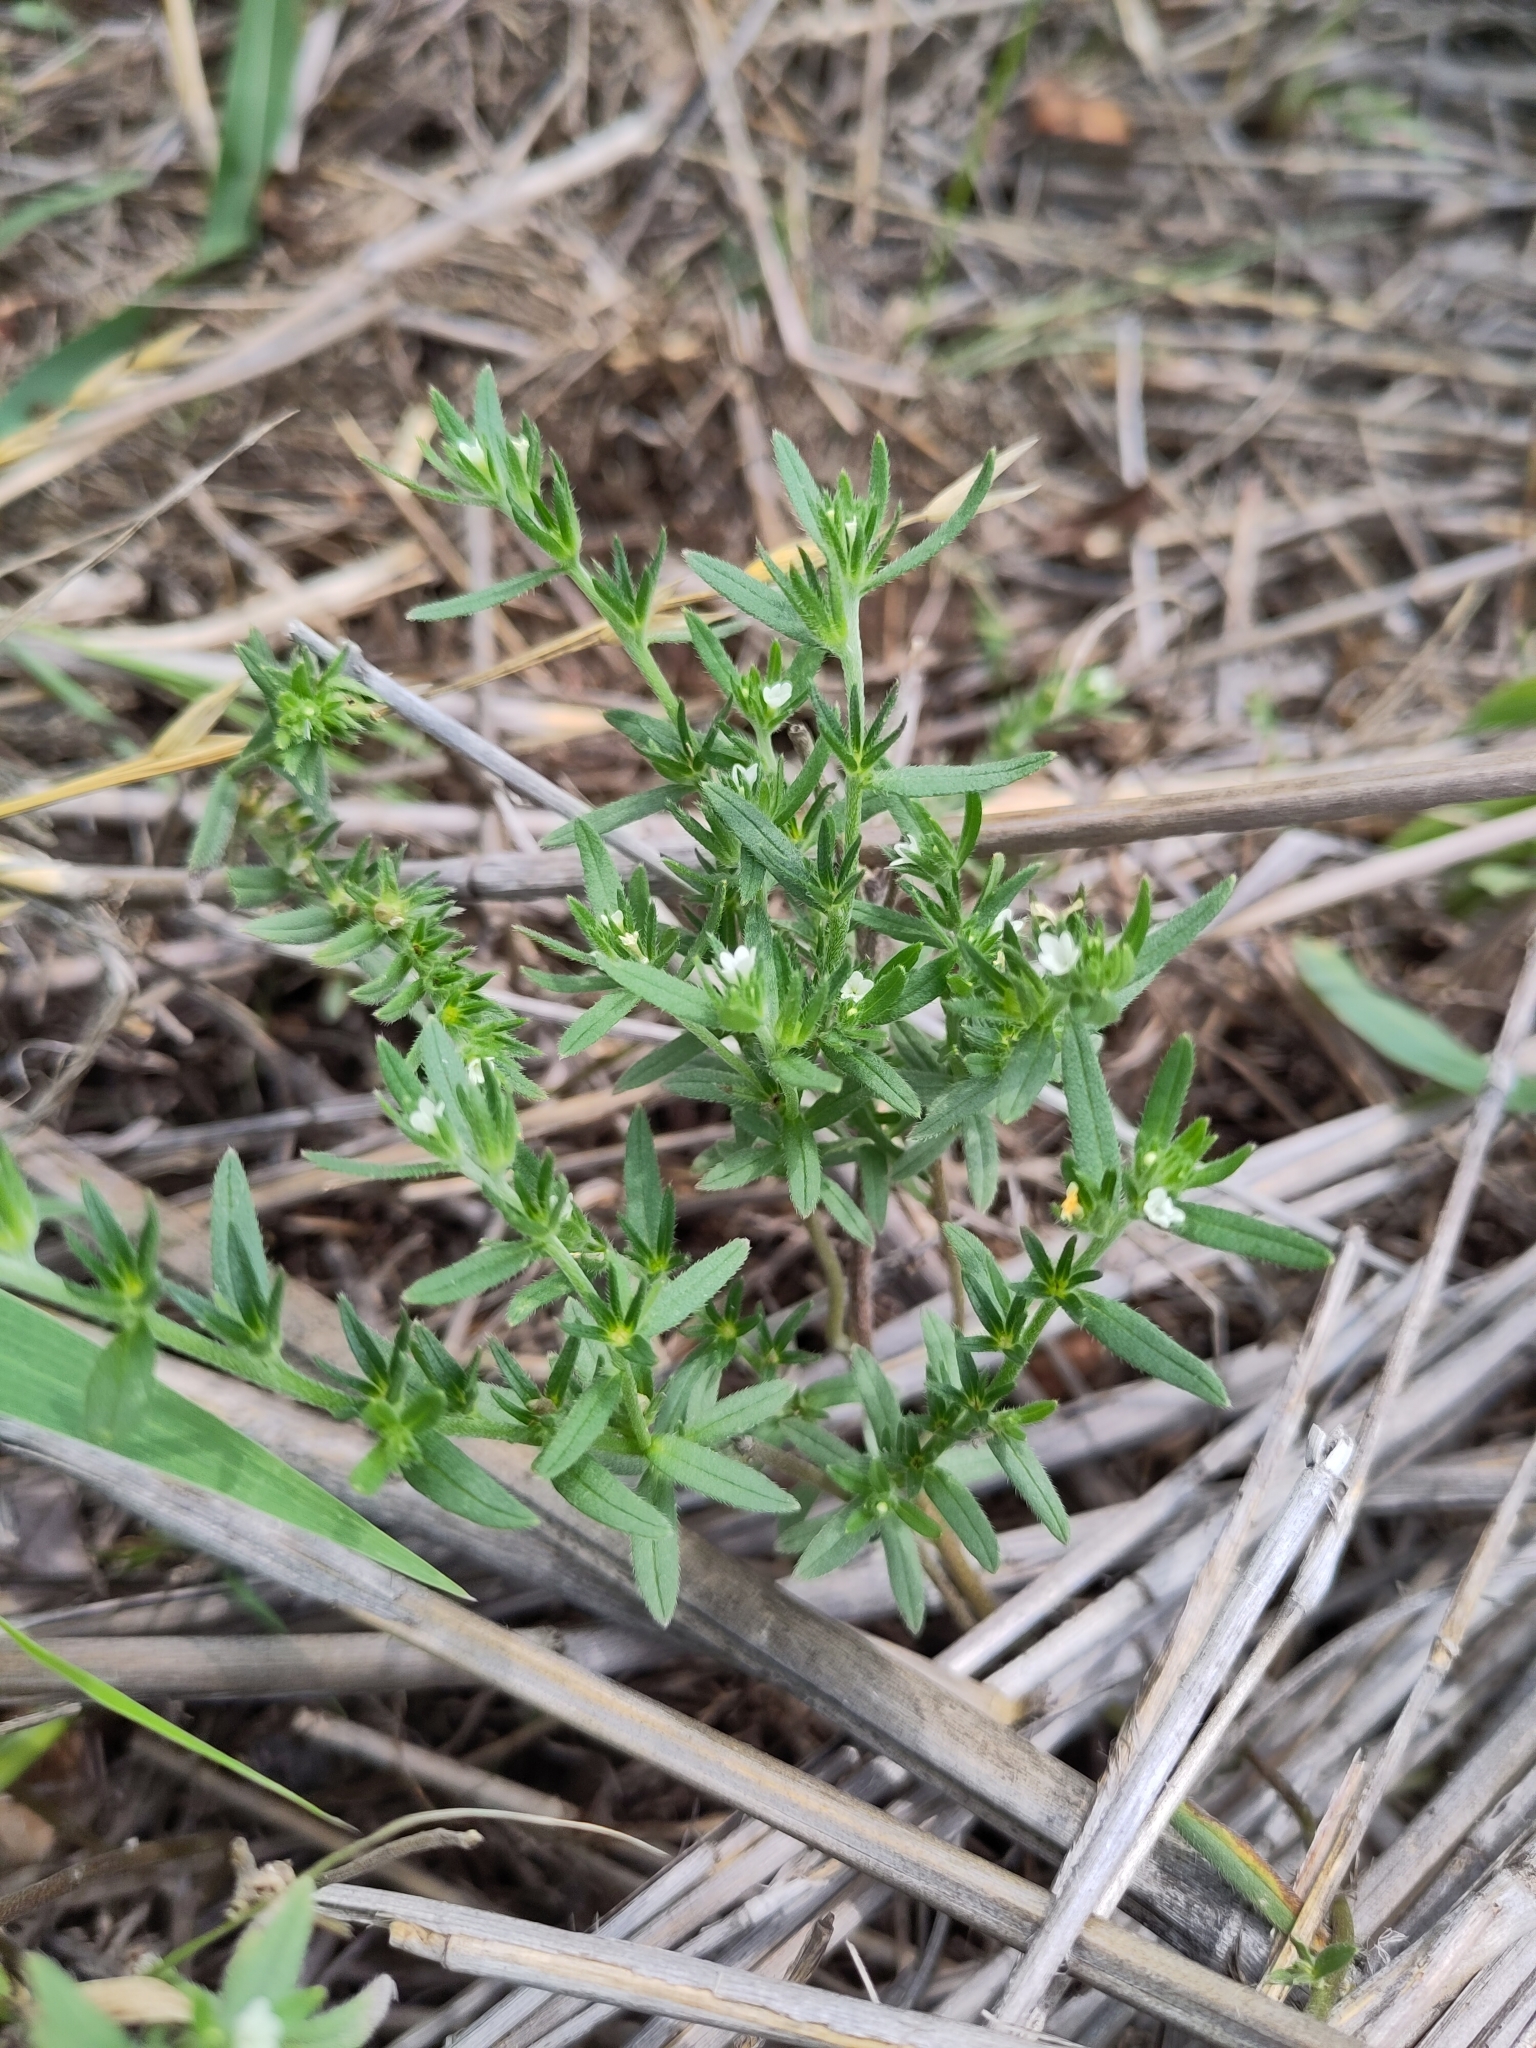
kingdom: Plantae
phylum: Tracheophyta
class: Magnoliopsida
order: Boraginales
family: Boraginaceae
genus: Buglossoides
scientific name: Buglossoides arvensis
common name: Corn gromwell
